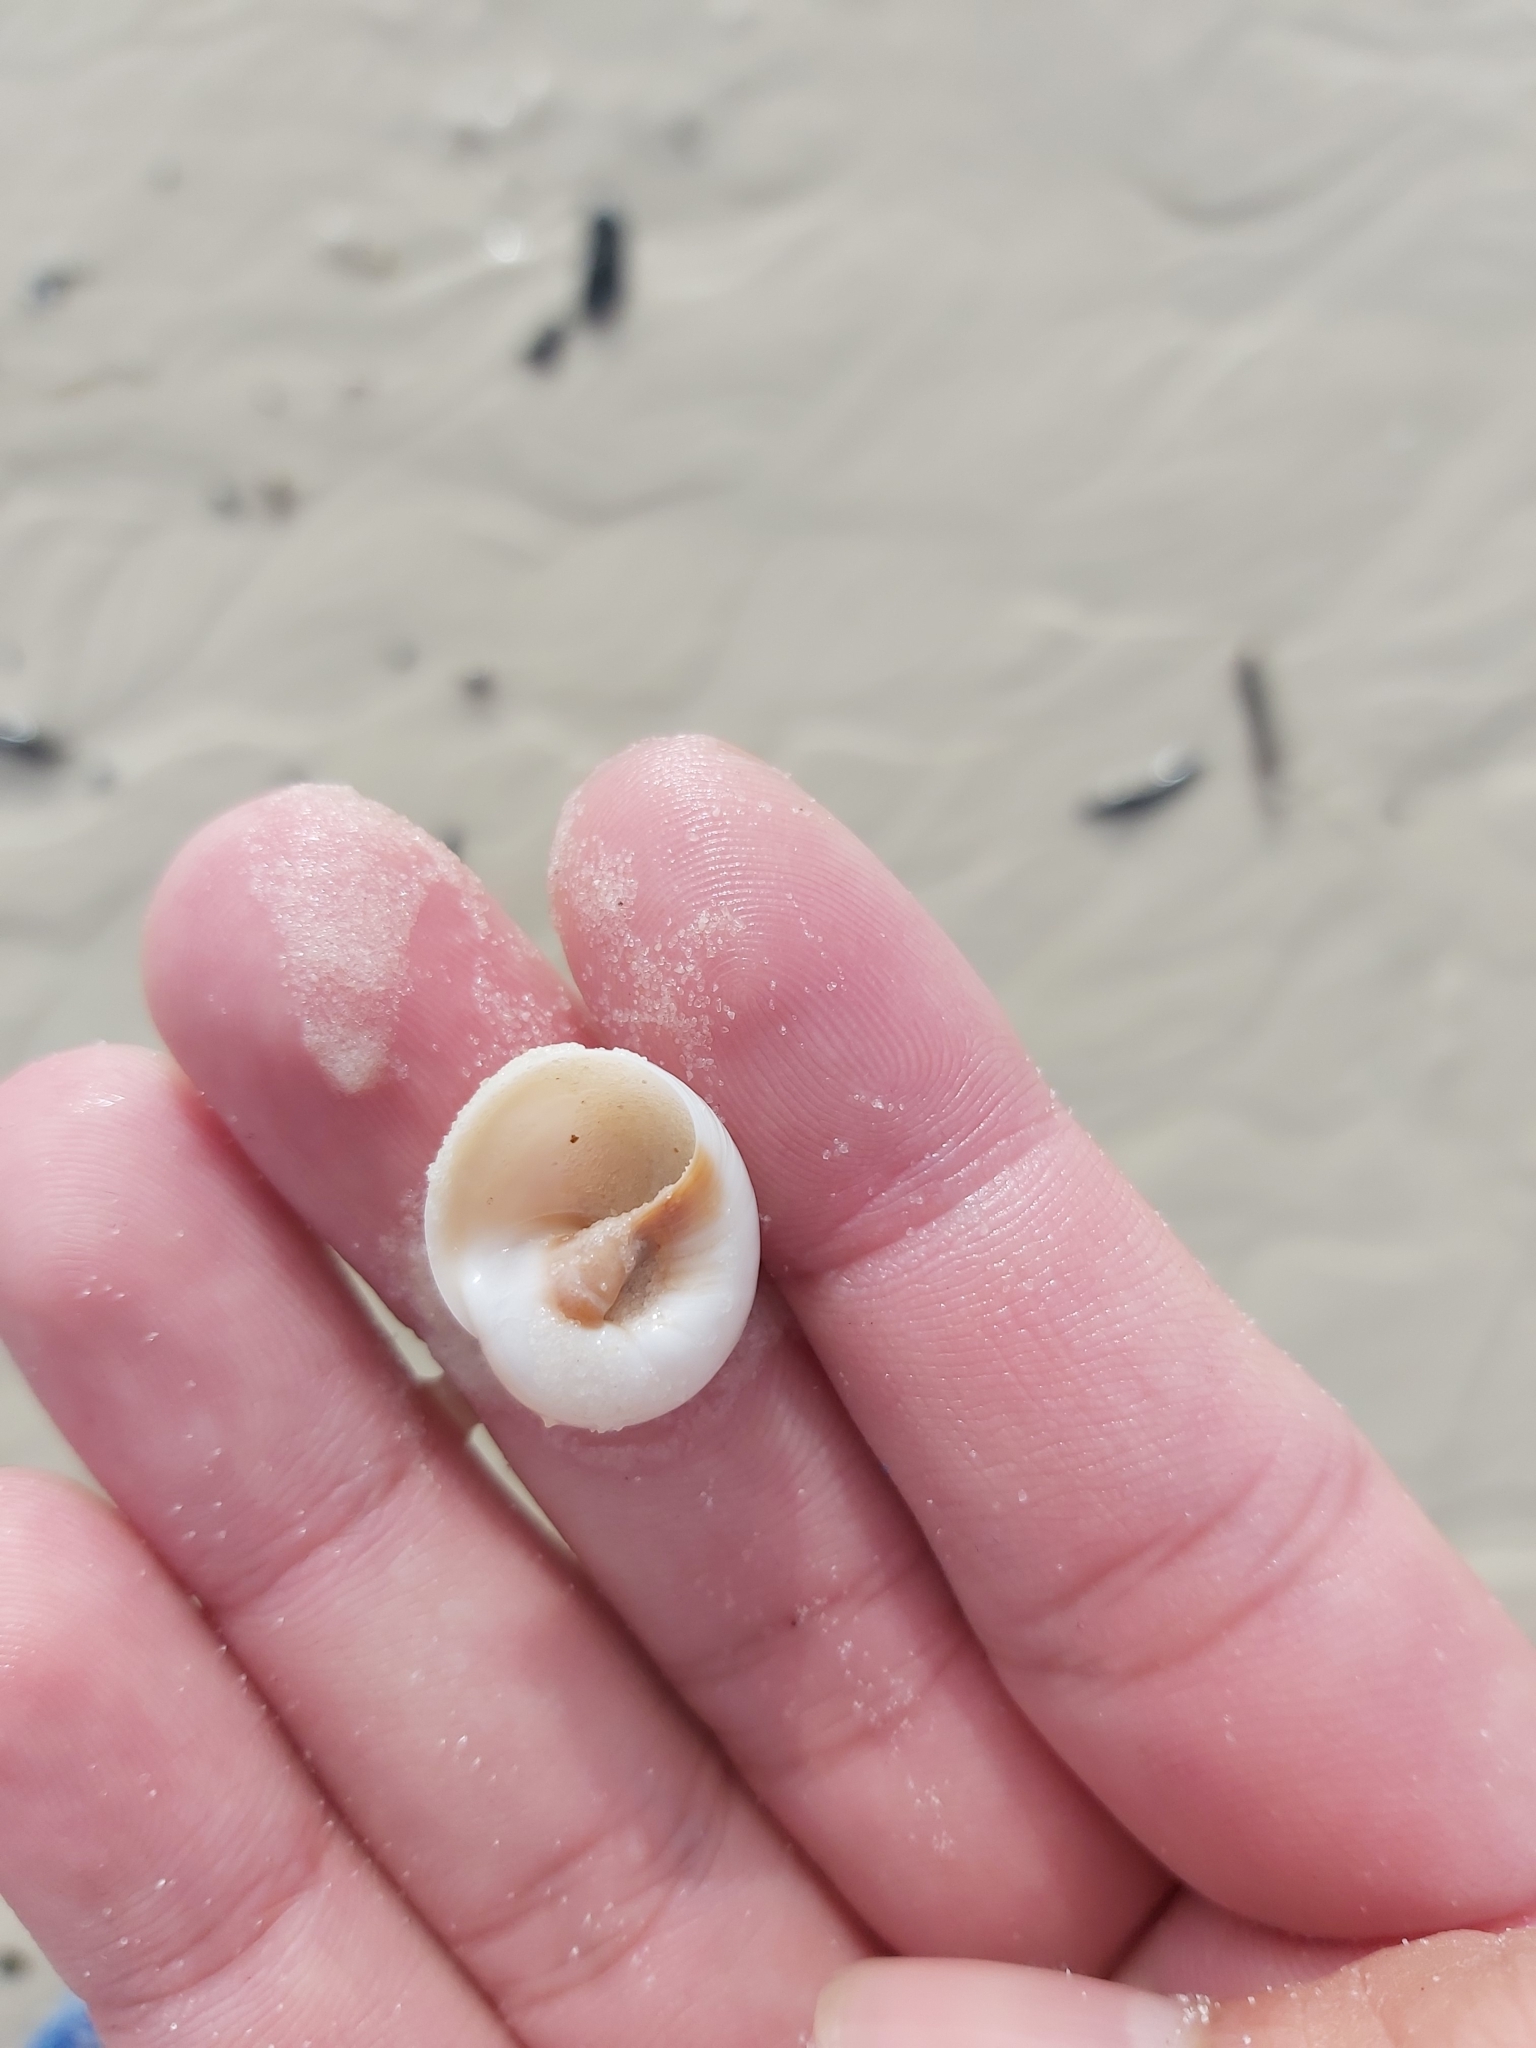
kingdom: Animalia
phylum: Mollusca
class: Gastropoda
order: Littorinimorpha
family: Naticidae
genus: Neverita
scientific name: Neverita didyma
